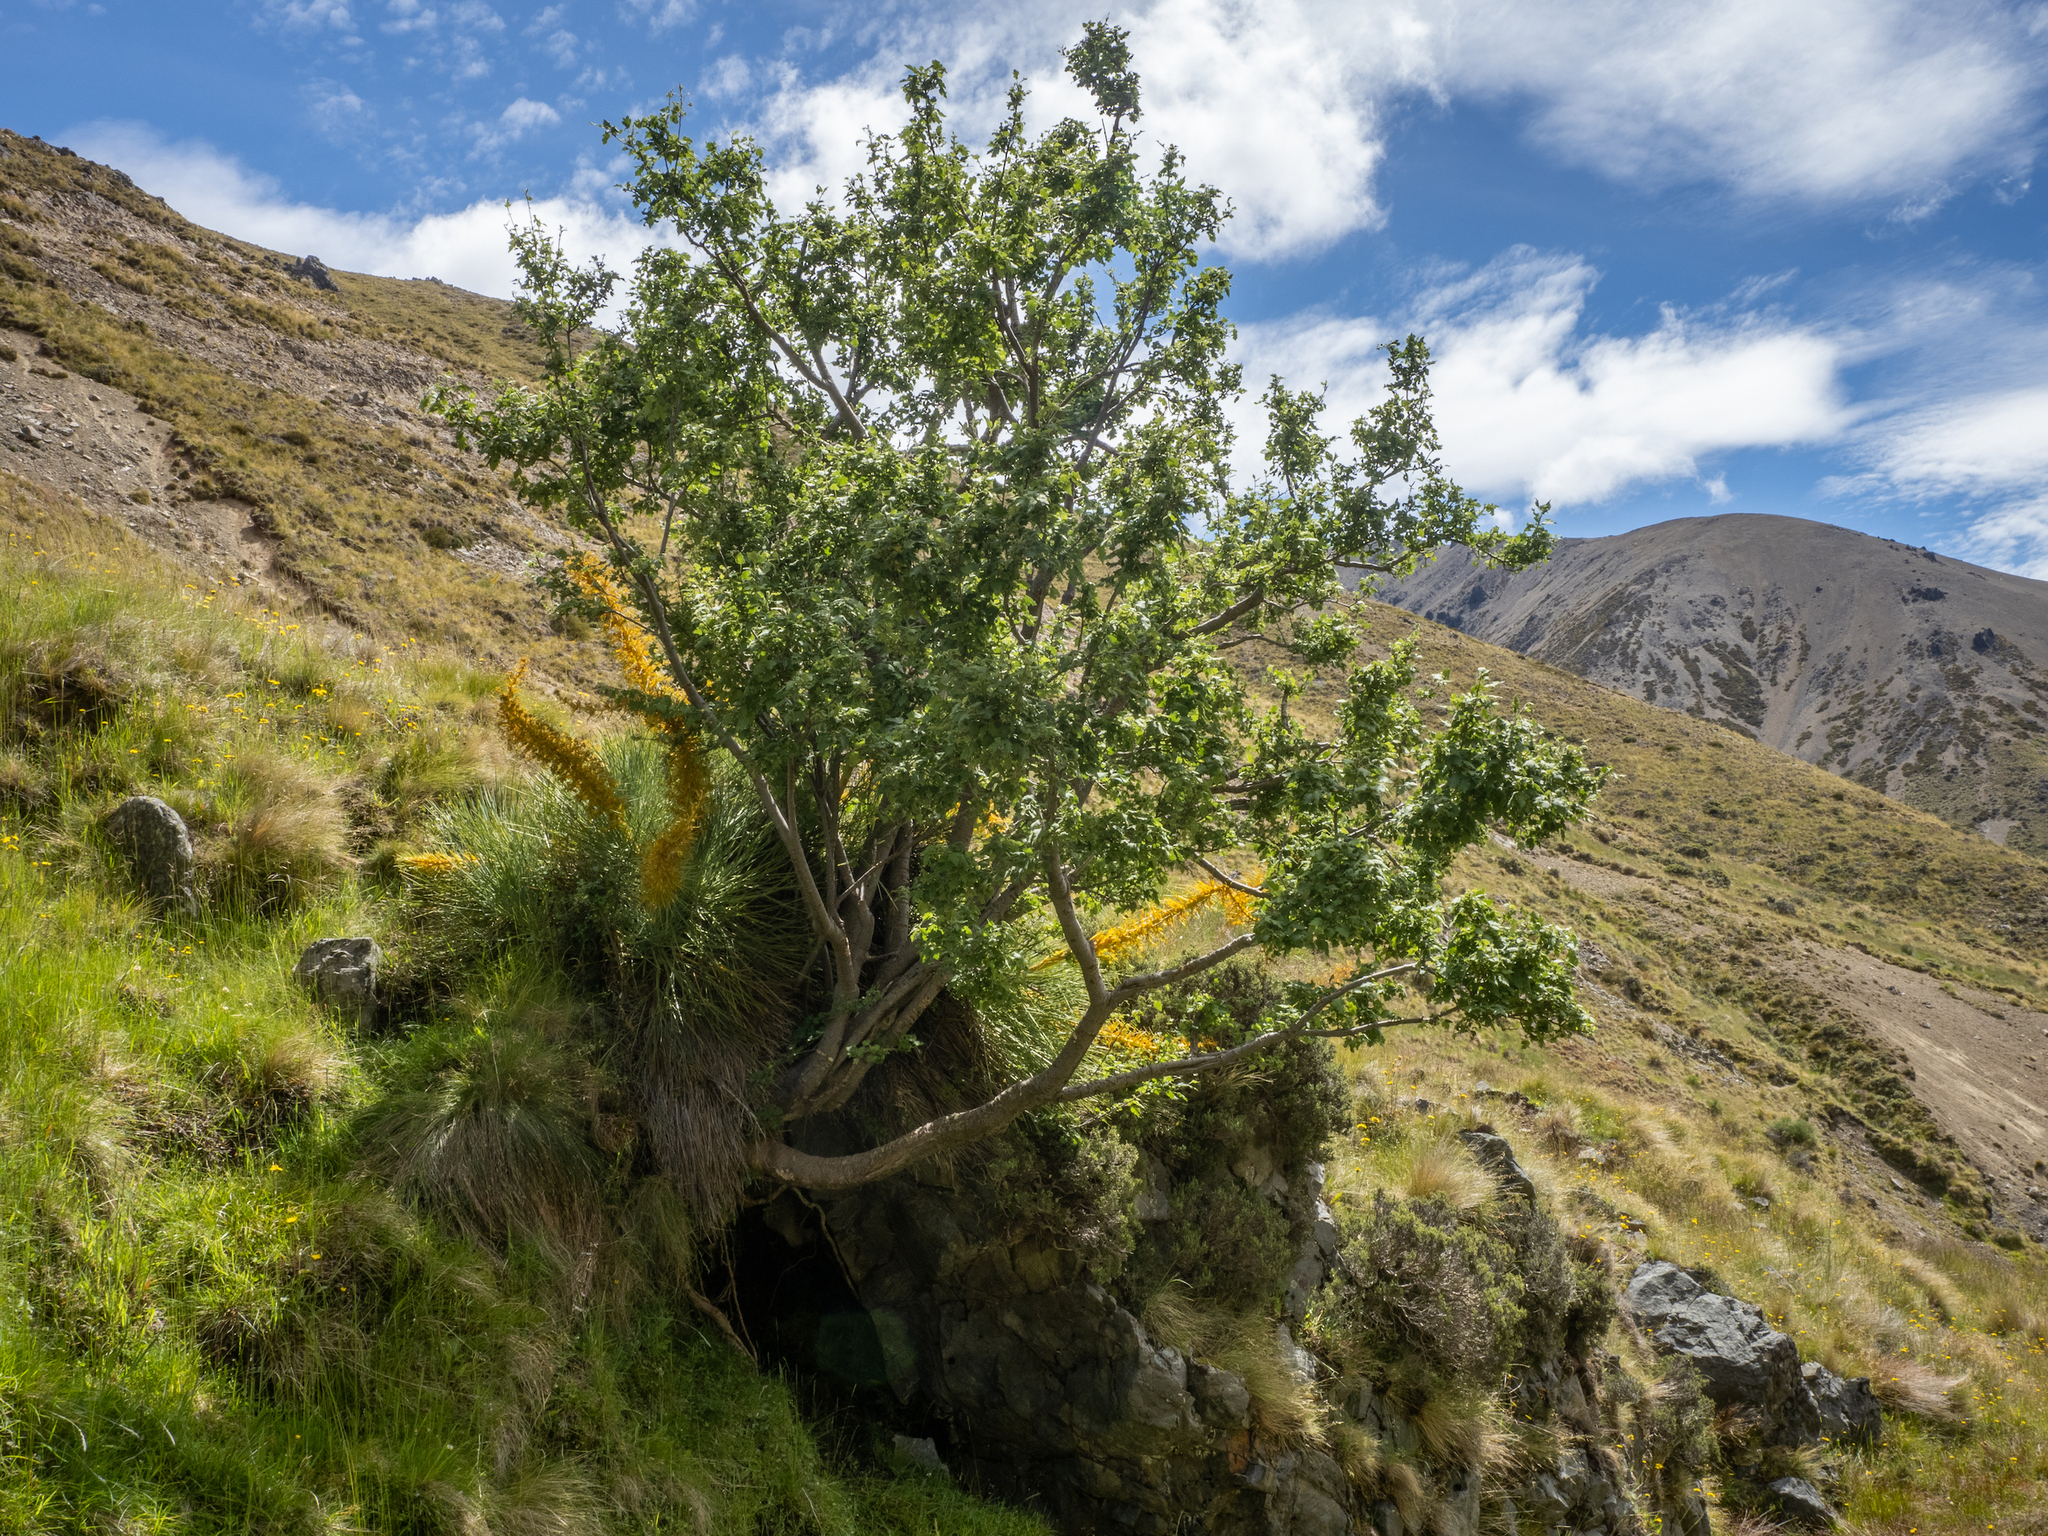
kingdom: Plantae
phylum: Tracheophyta
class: Magnoliopsida
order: Malvales
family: Malvaceae
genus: Hoheria
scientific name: Hoheria lyallii
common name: Lacebark
